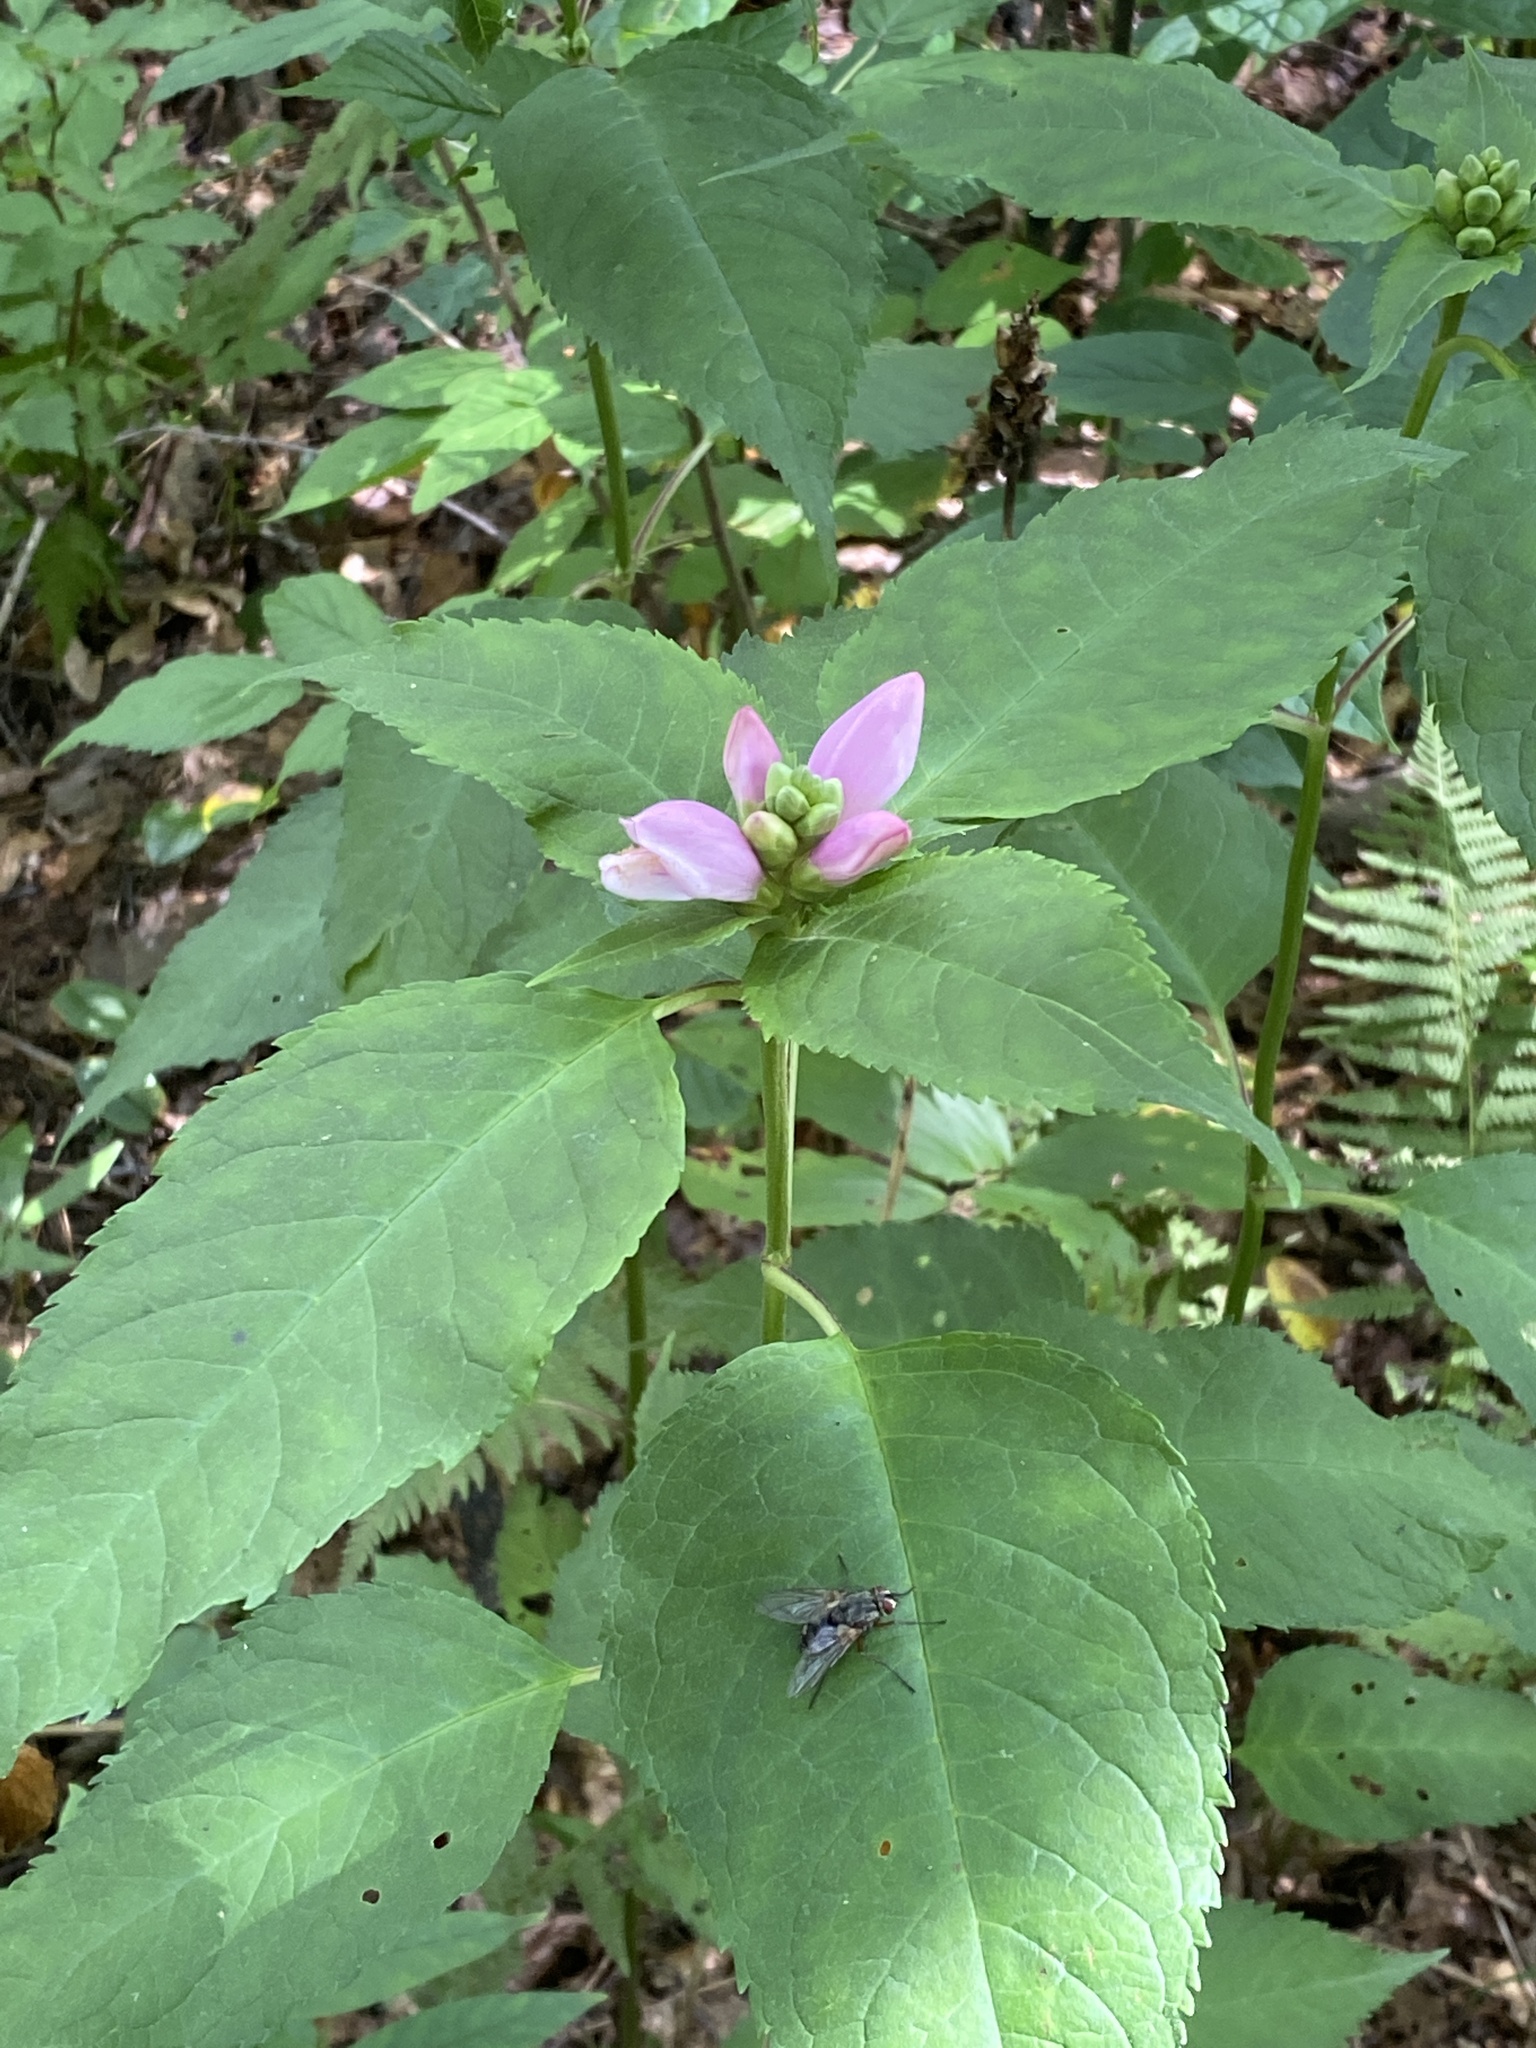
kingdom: Plantae
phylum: Tracheophyta
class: Magnoliopsida
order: Lamiales
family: Plantaginaceae
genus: Chelone
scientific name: Chelone lyonii
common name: Pink turtlehead
